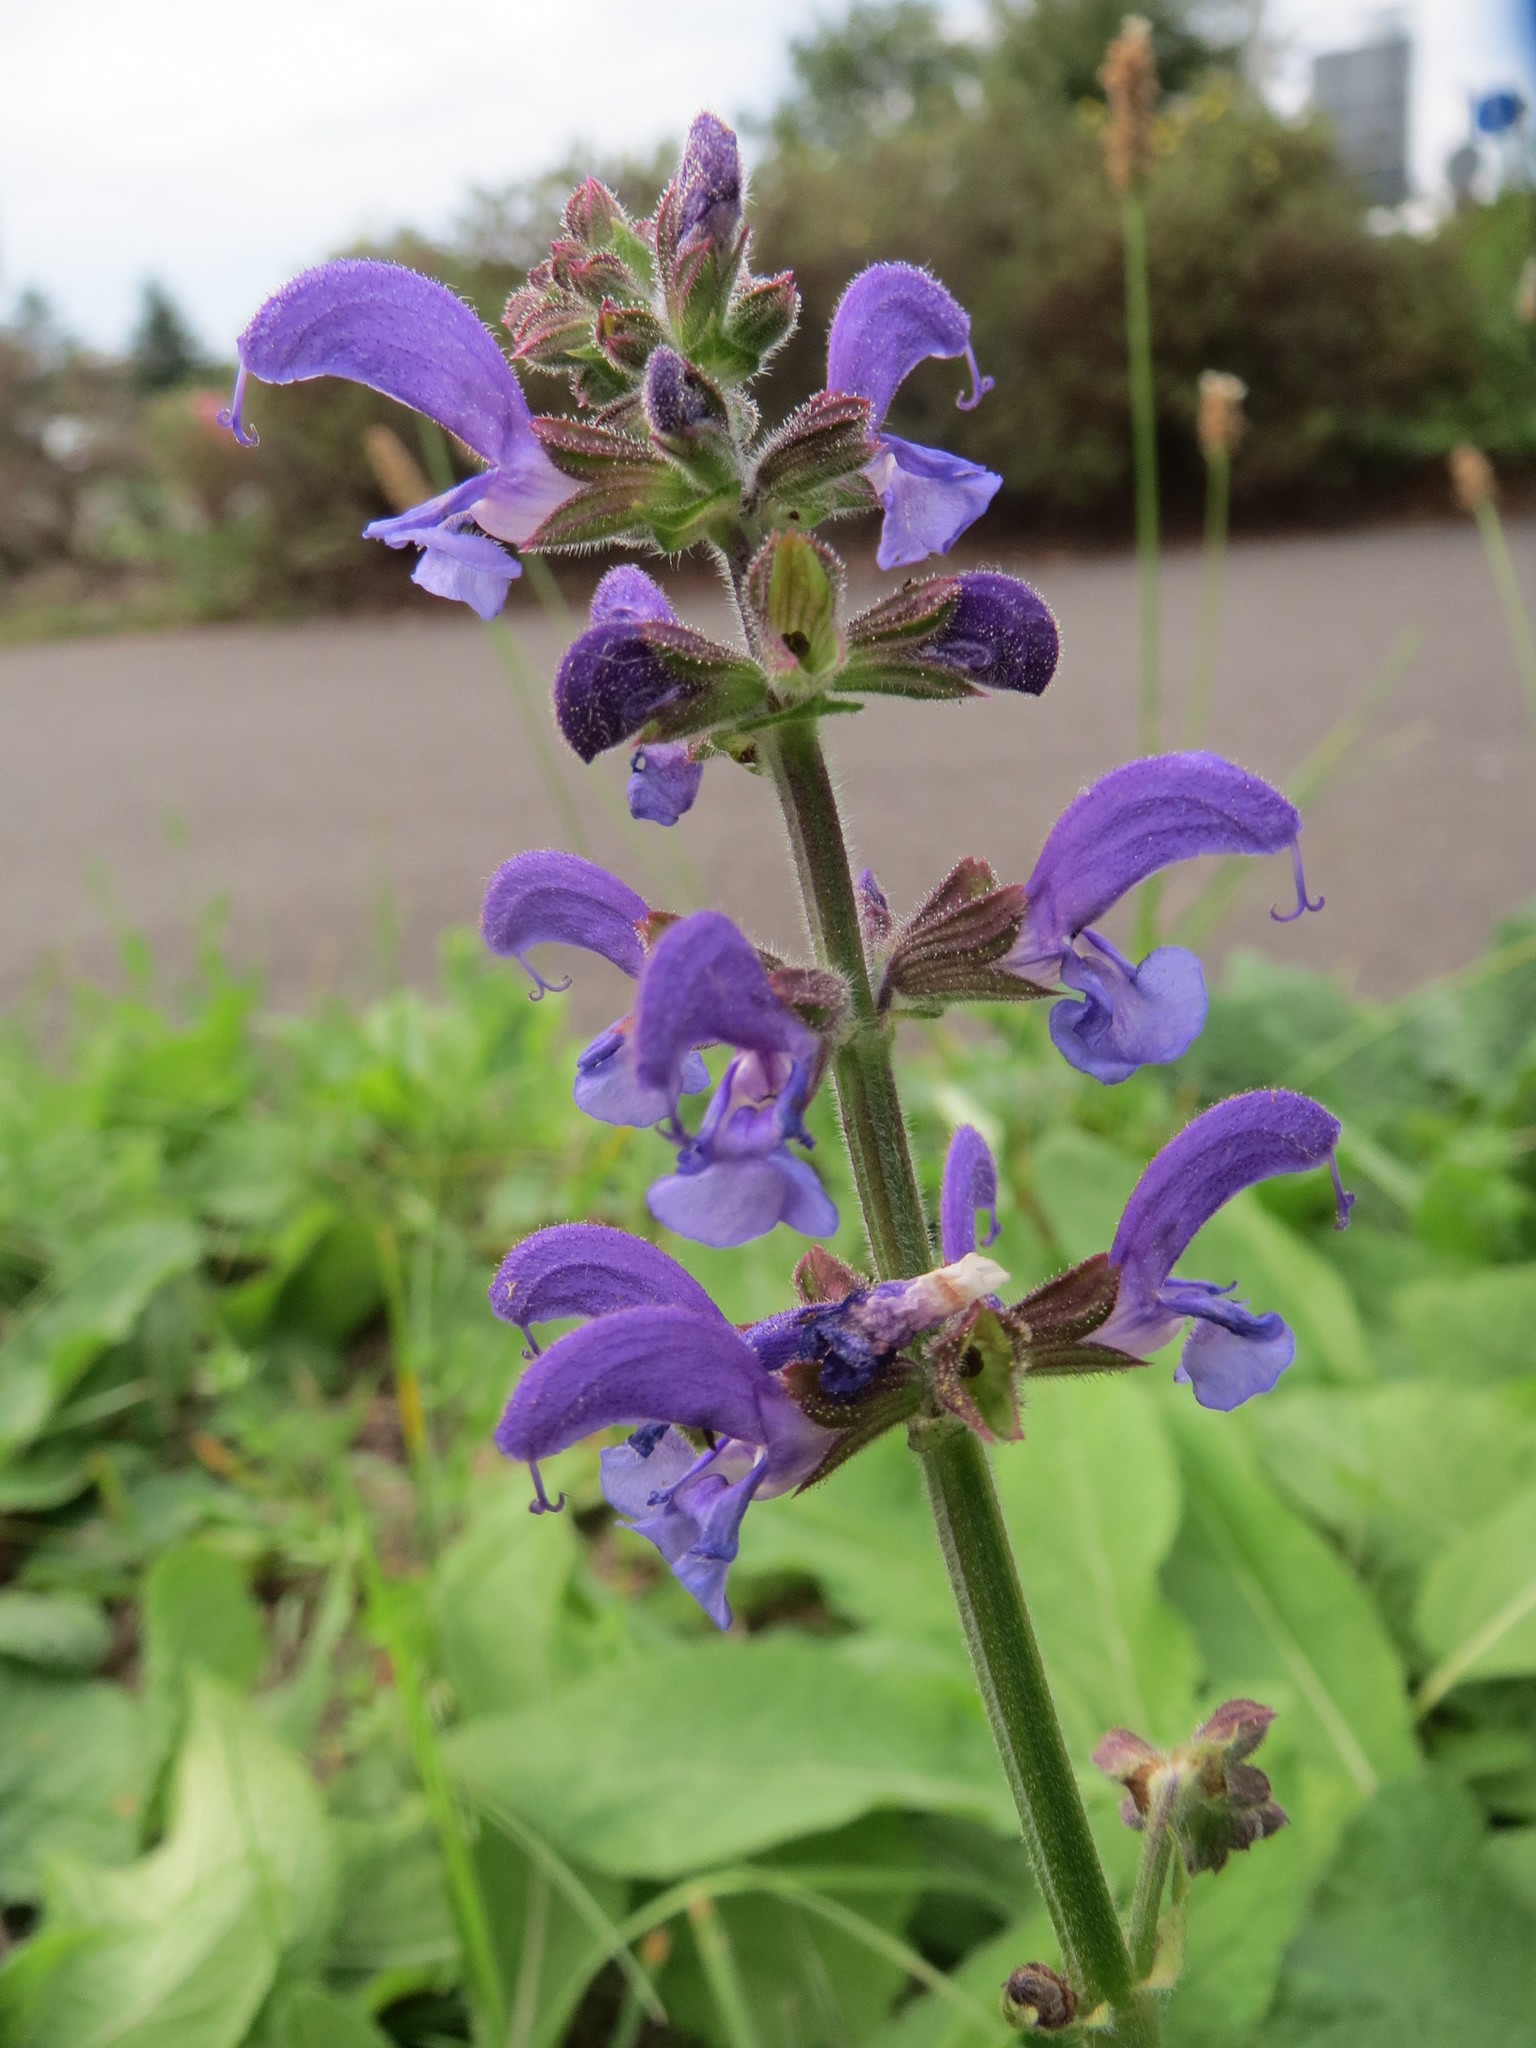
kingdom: Plantae
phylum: Tracheophyta
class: Magnoliopsida
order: Lamiales
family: Lamiaceae
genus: Salvia
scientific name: Salvia pratensis
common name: Meadow sage
